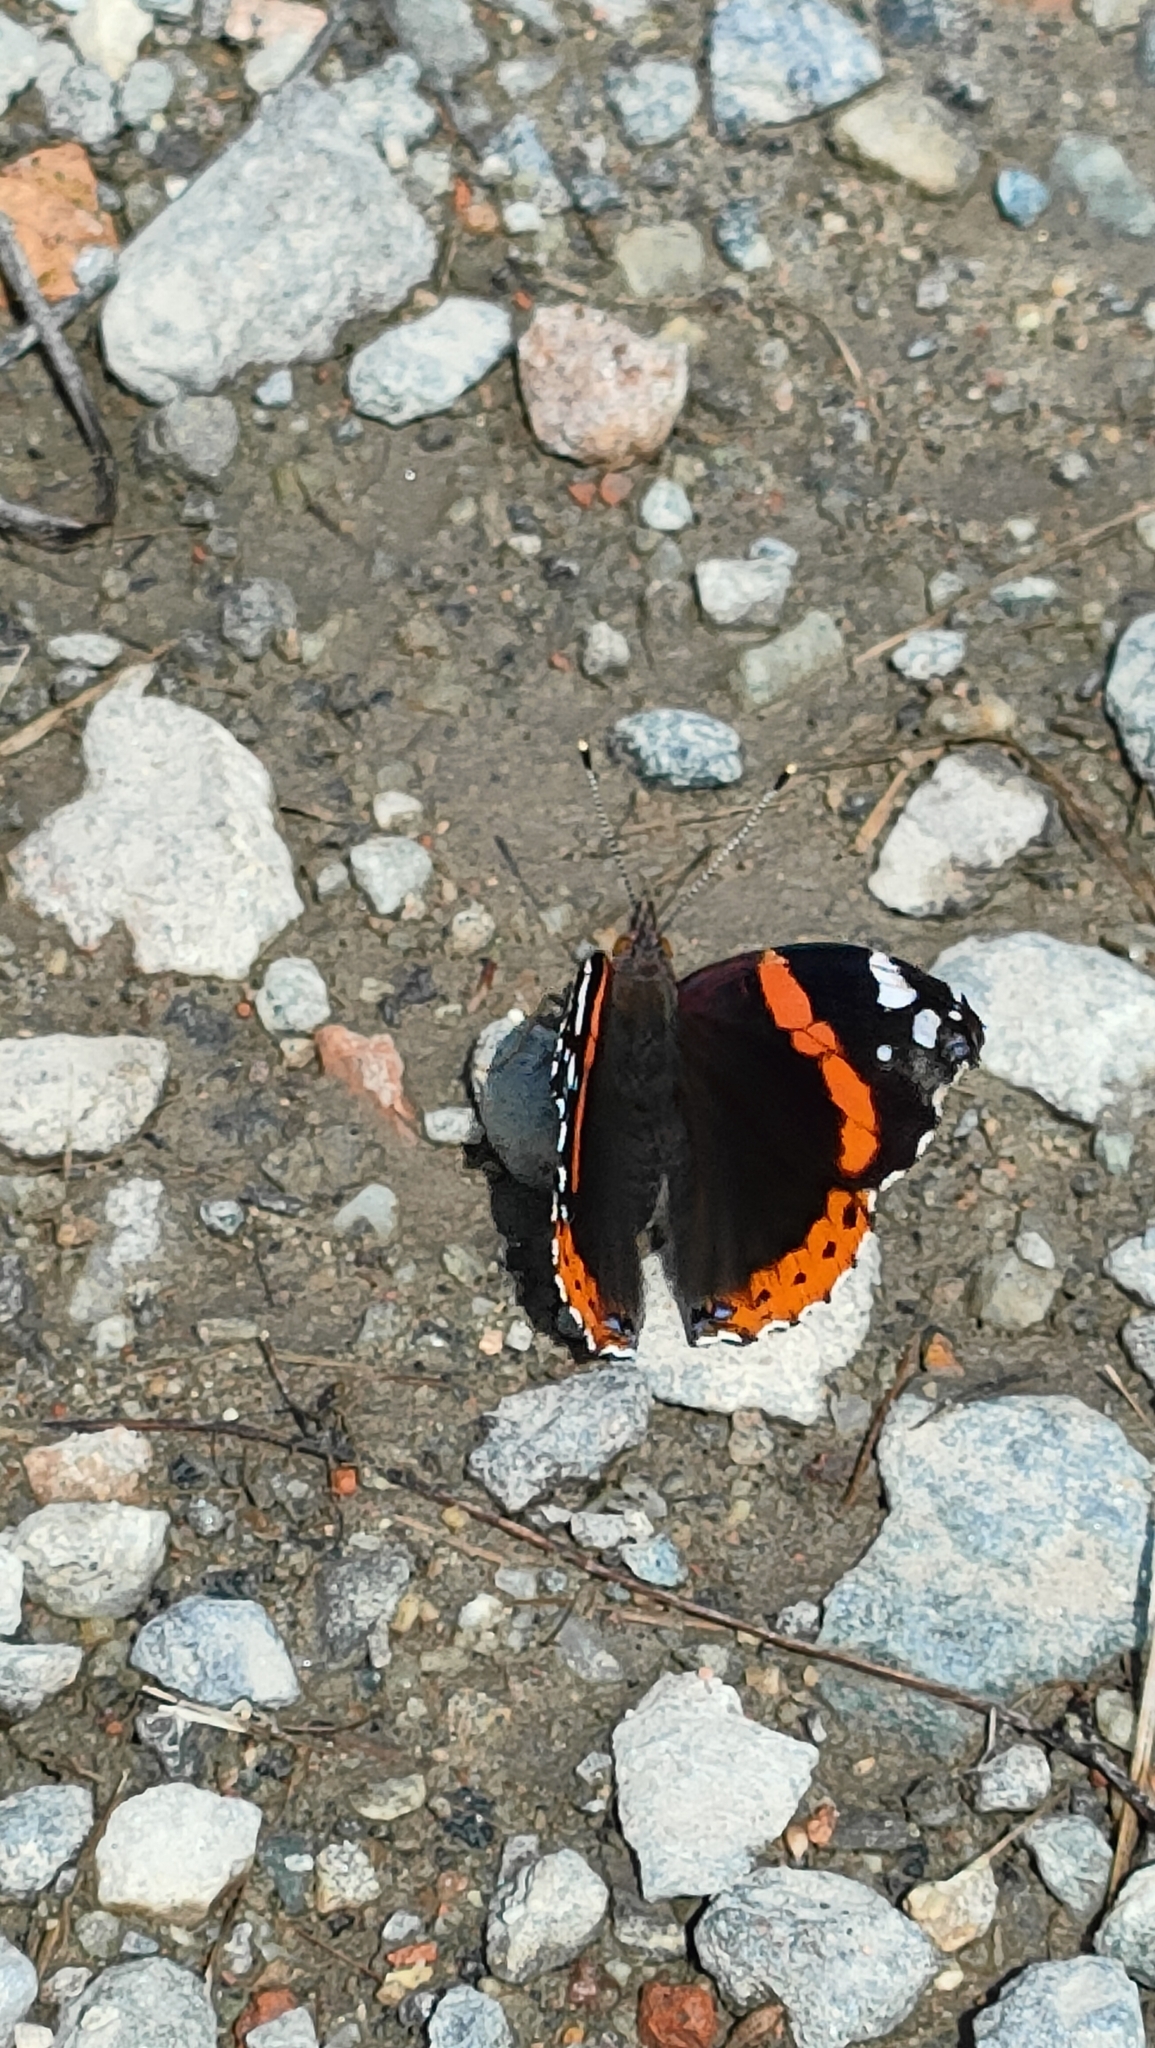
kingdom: Animalia
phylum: Arthropoda
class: Insecta
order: Lepidoptera
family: Nymphalidae
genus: Vanessa
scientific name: Vanessa atalanta
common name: Red admiral
